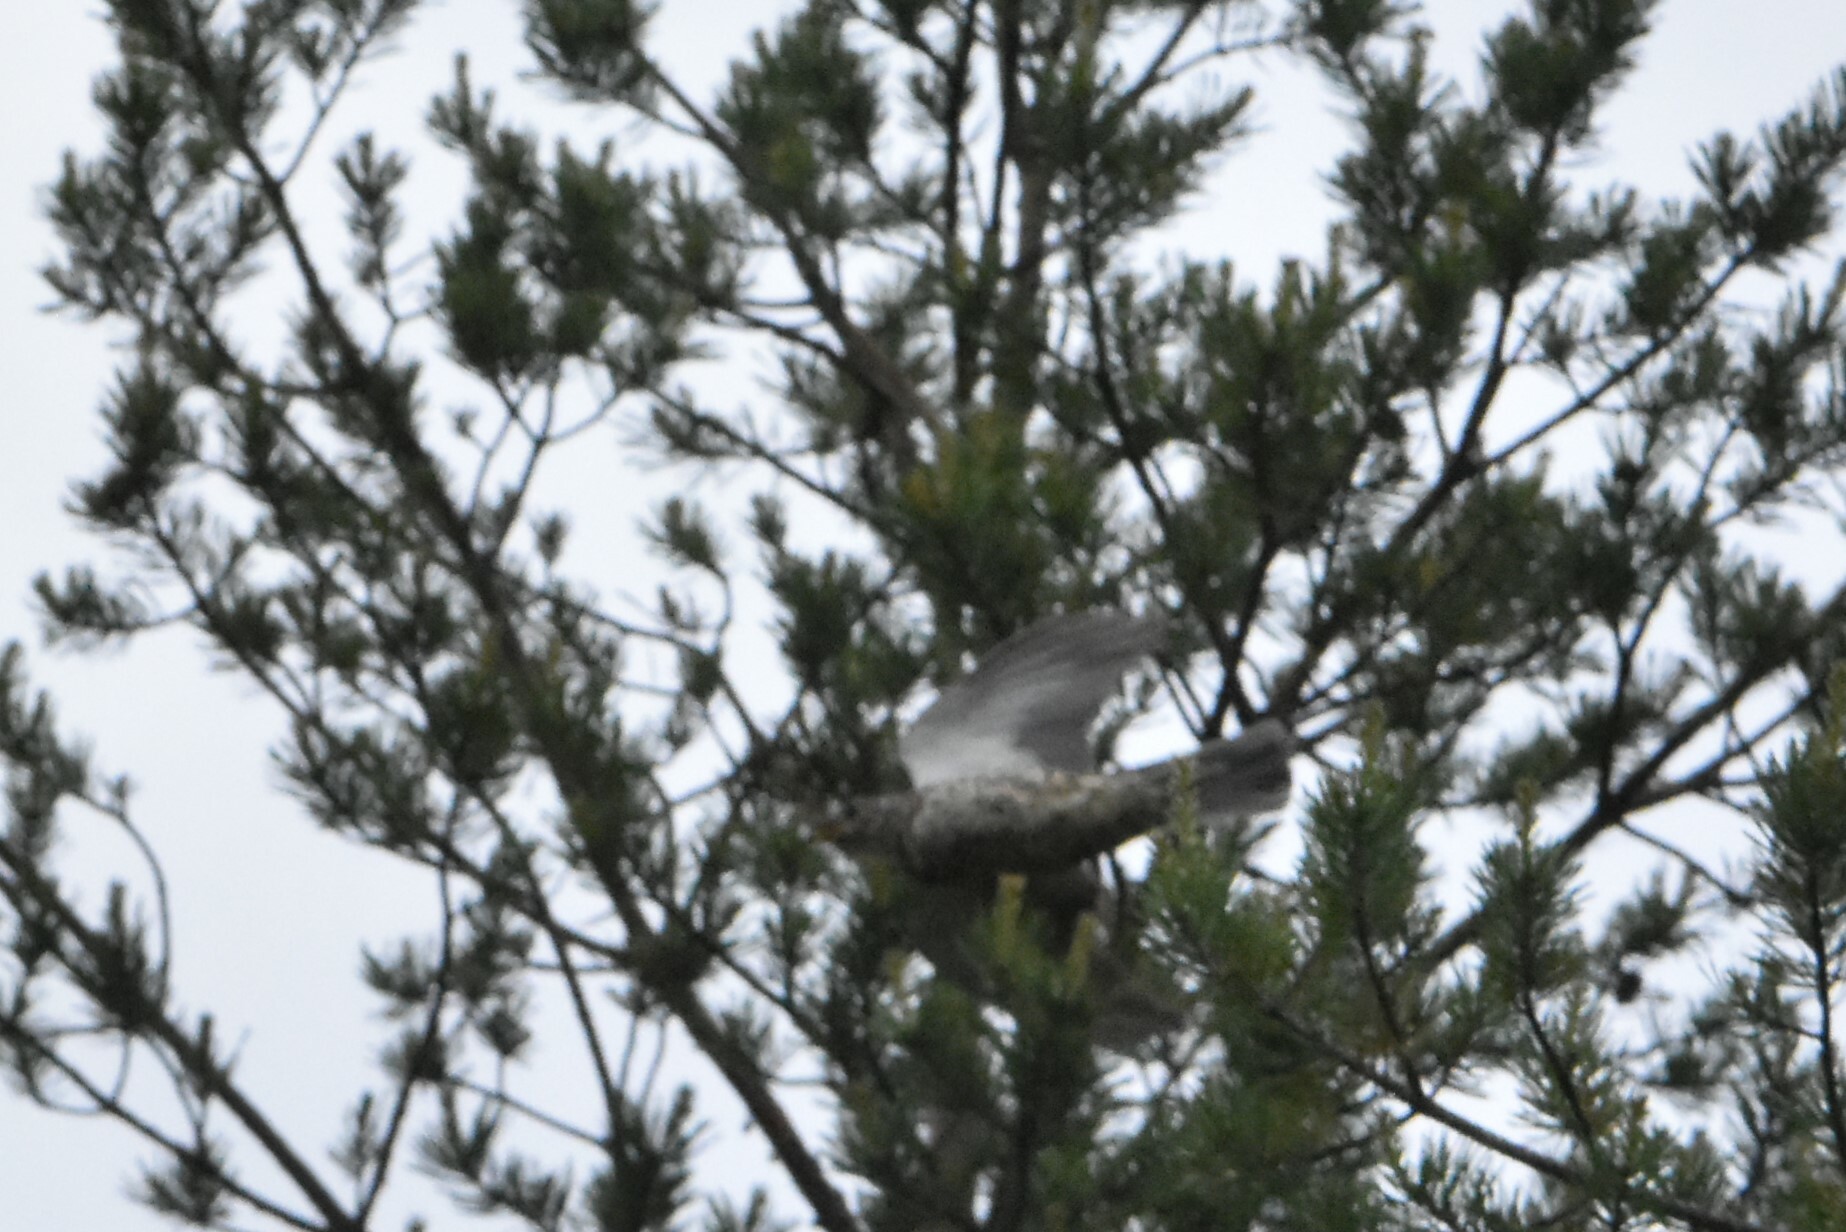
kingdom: Animalia
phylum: Chordata
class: Aves
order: Passeriformes
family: Turdidae
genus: Turdus
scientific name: Turdus viscivorus
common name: Mistle thrush
